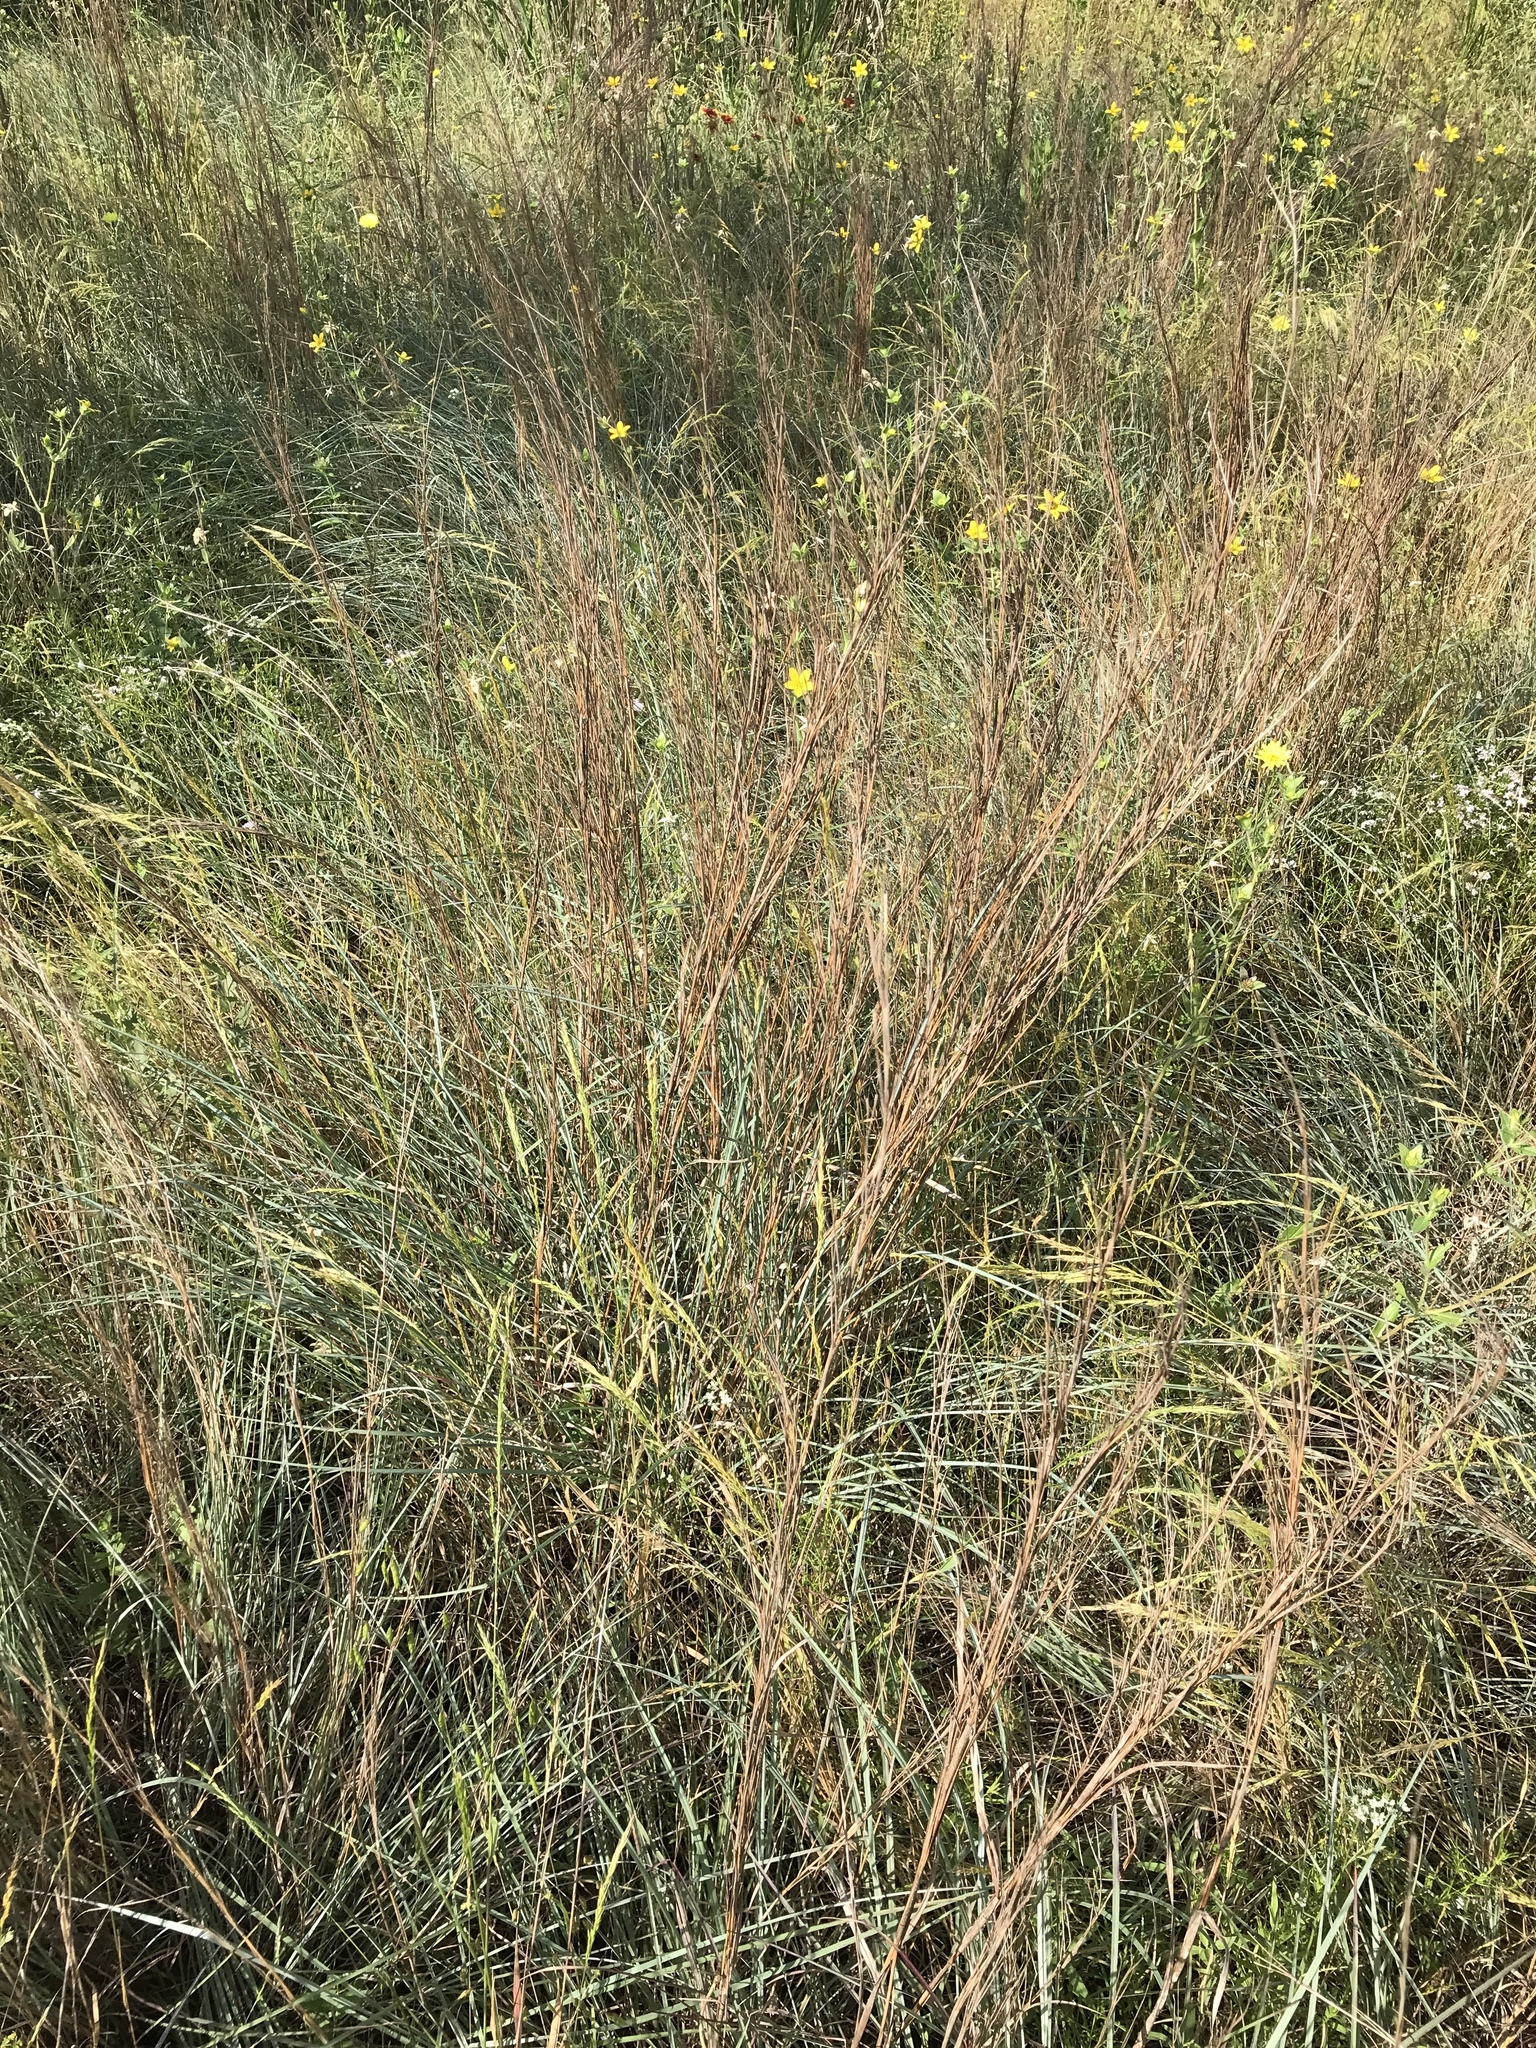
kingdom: Plantae
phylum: Tracheophyta
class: Liliopsida
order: Poales
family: Poaceae
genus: Schizachyrium
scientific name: Schizachyrium scoparium
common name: Little bluestem
